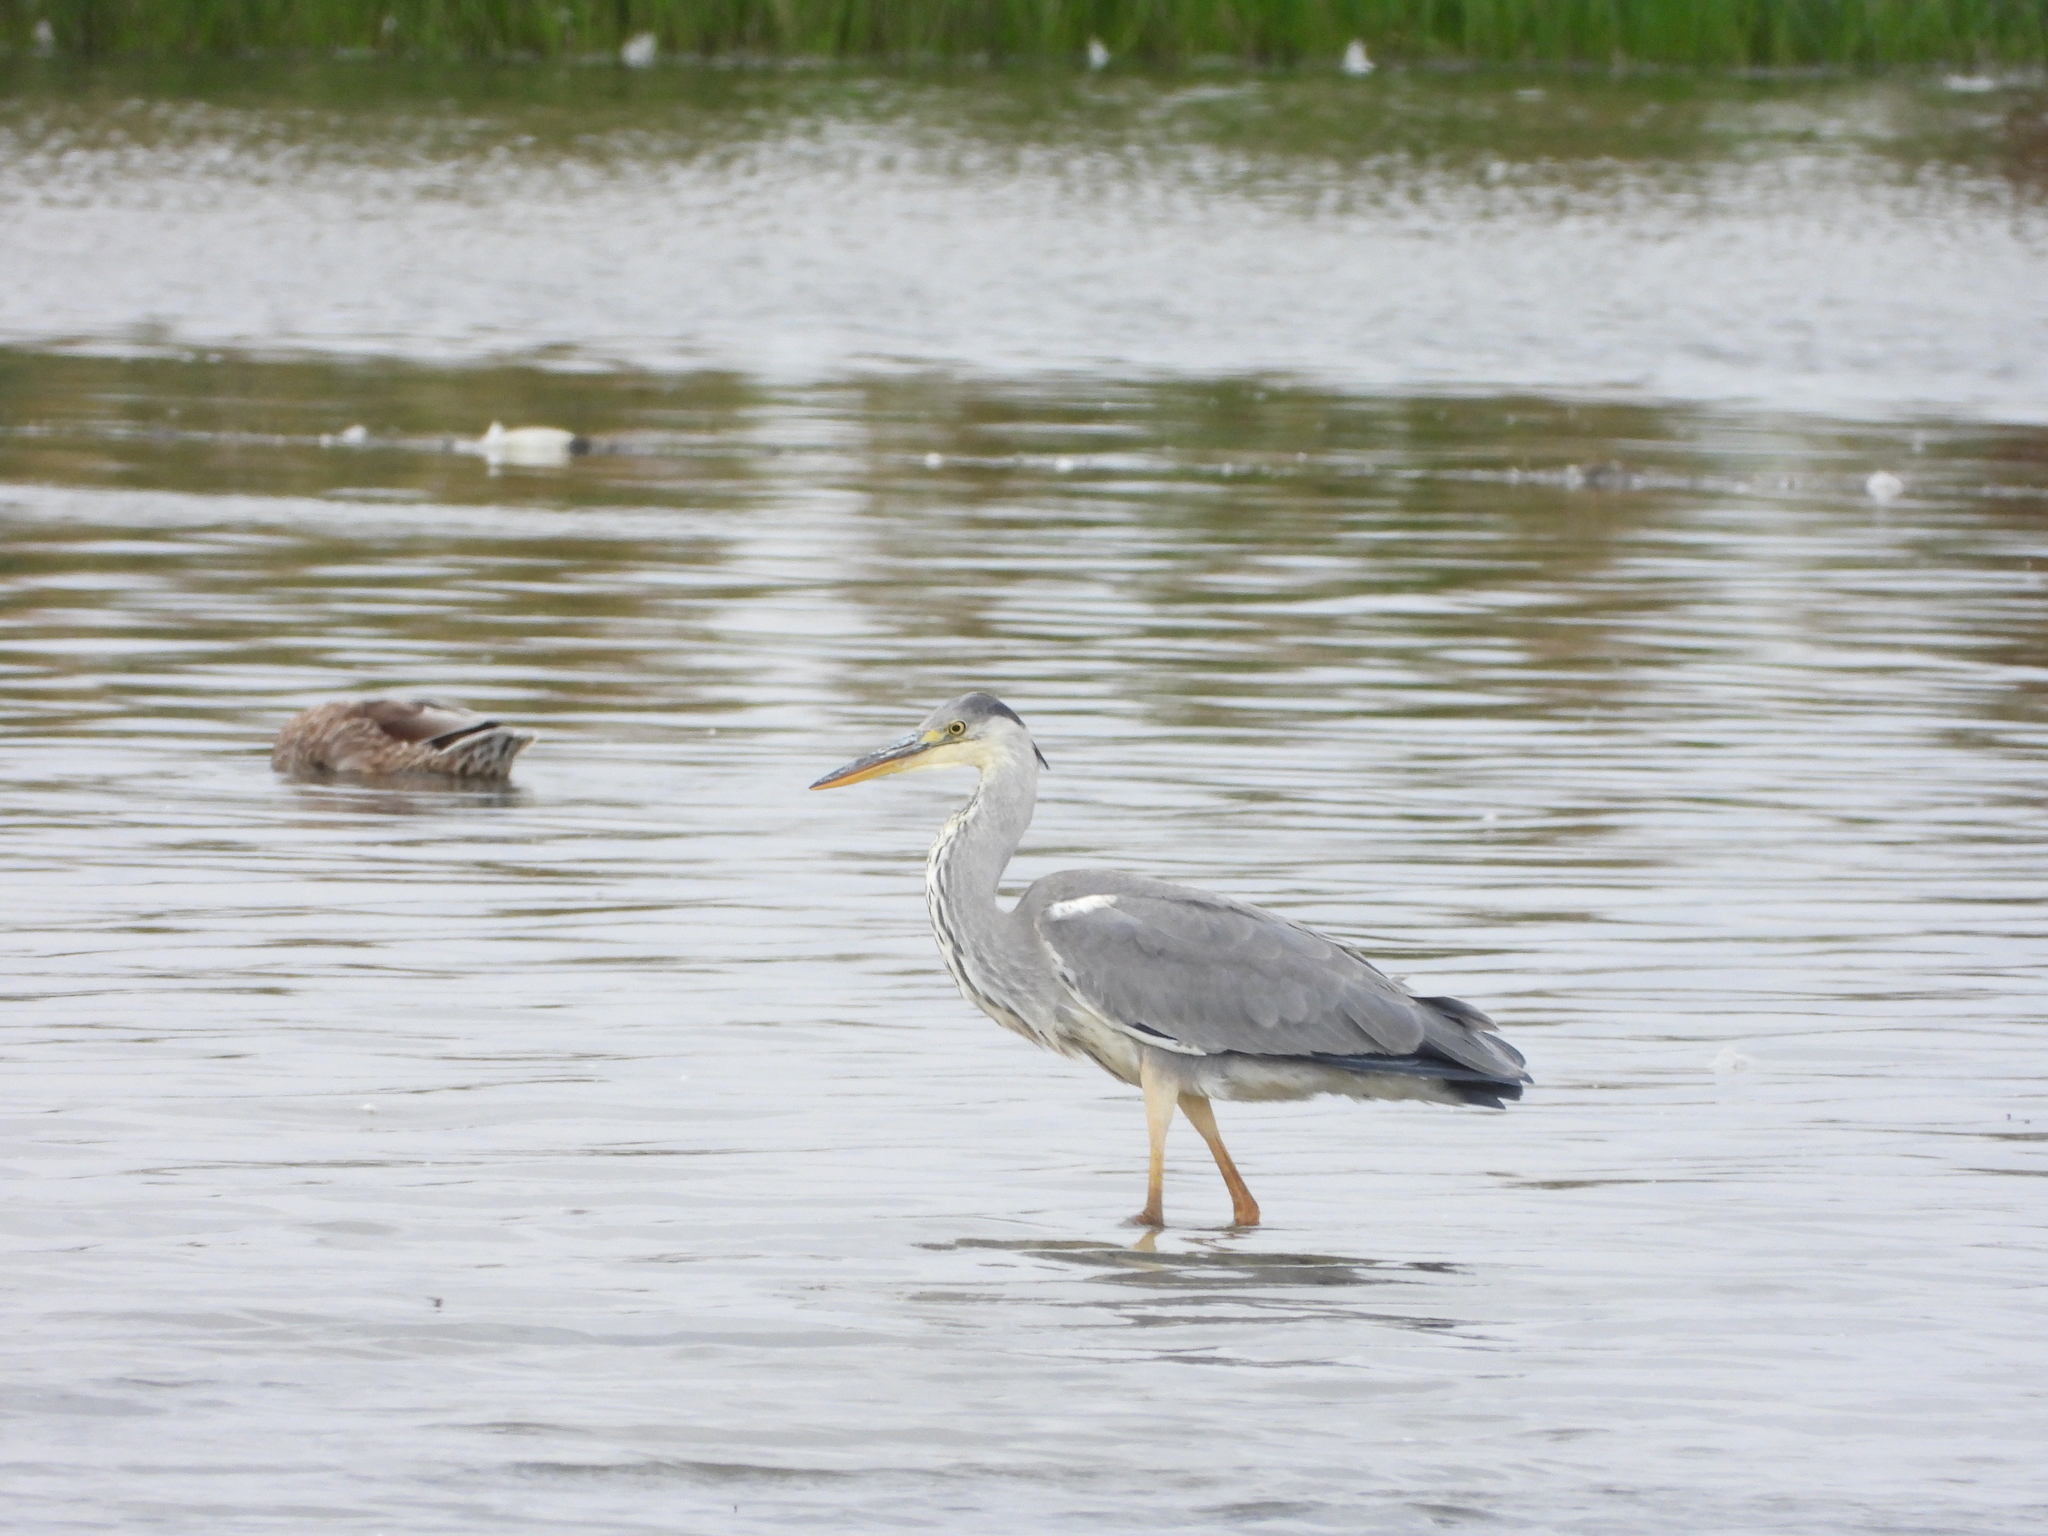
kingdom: Animalia
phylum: Chordata
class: Aves
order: Pelecaniformes
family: Ardeidae
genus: Ardea
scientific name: Ardea cinerea
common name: Grey heron
